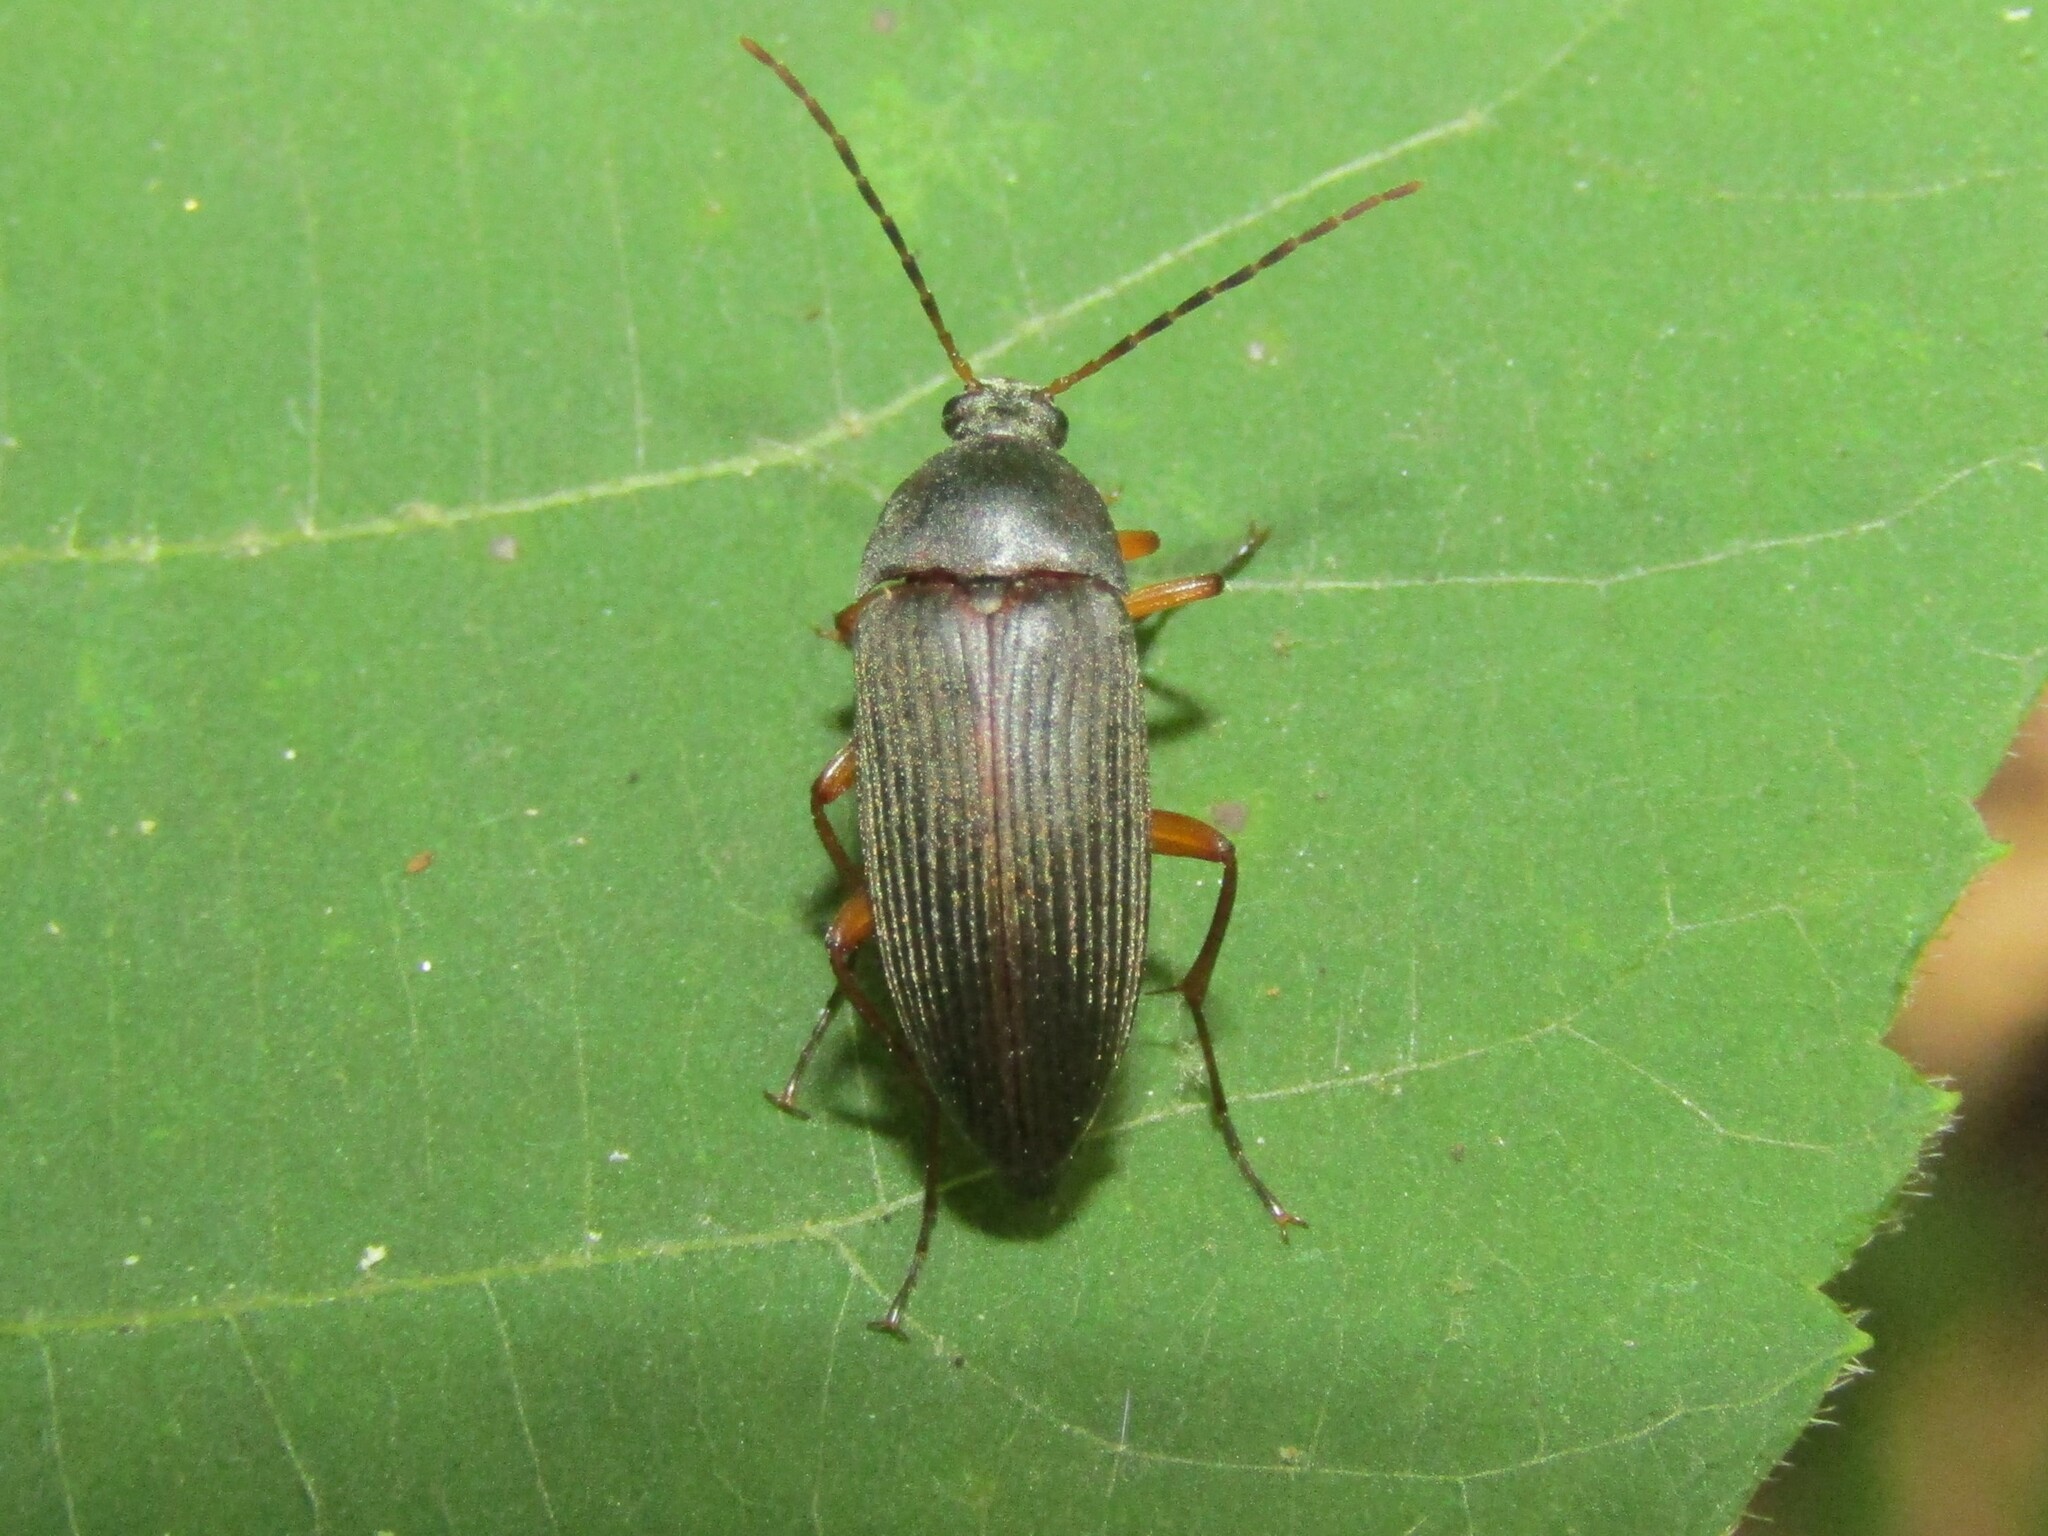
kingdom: Animalia
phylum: Arthropoda
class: Insecta
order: Coleoptera
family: Tenebrionidae
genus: Androchirus
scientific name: Androchirus erythropus
